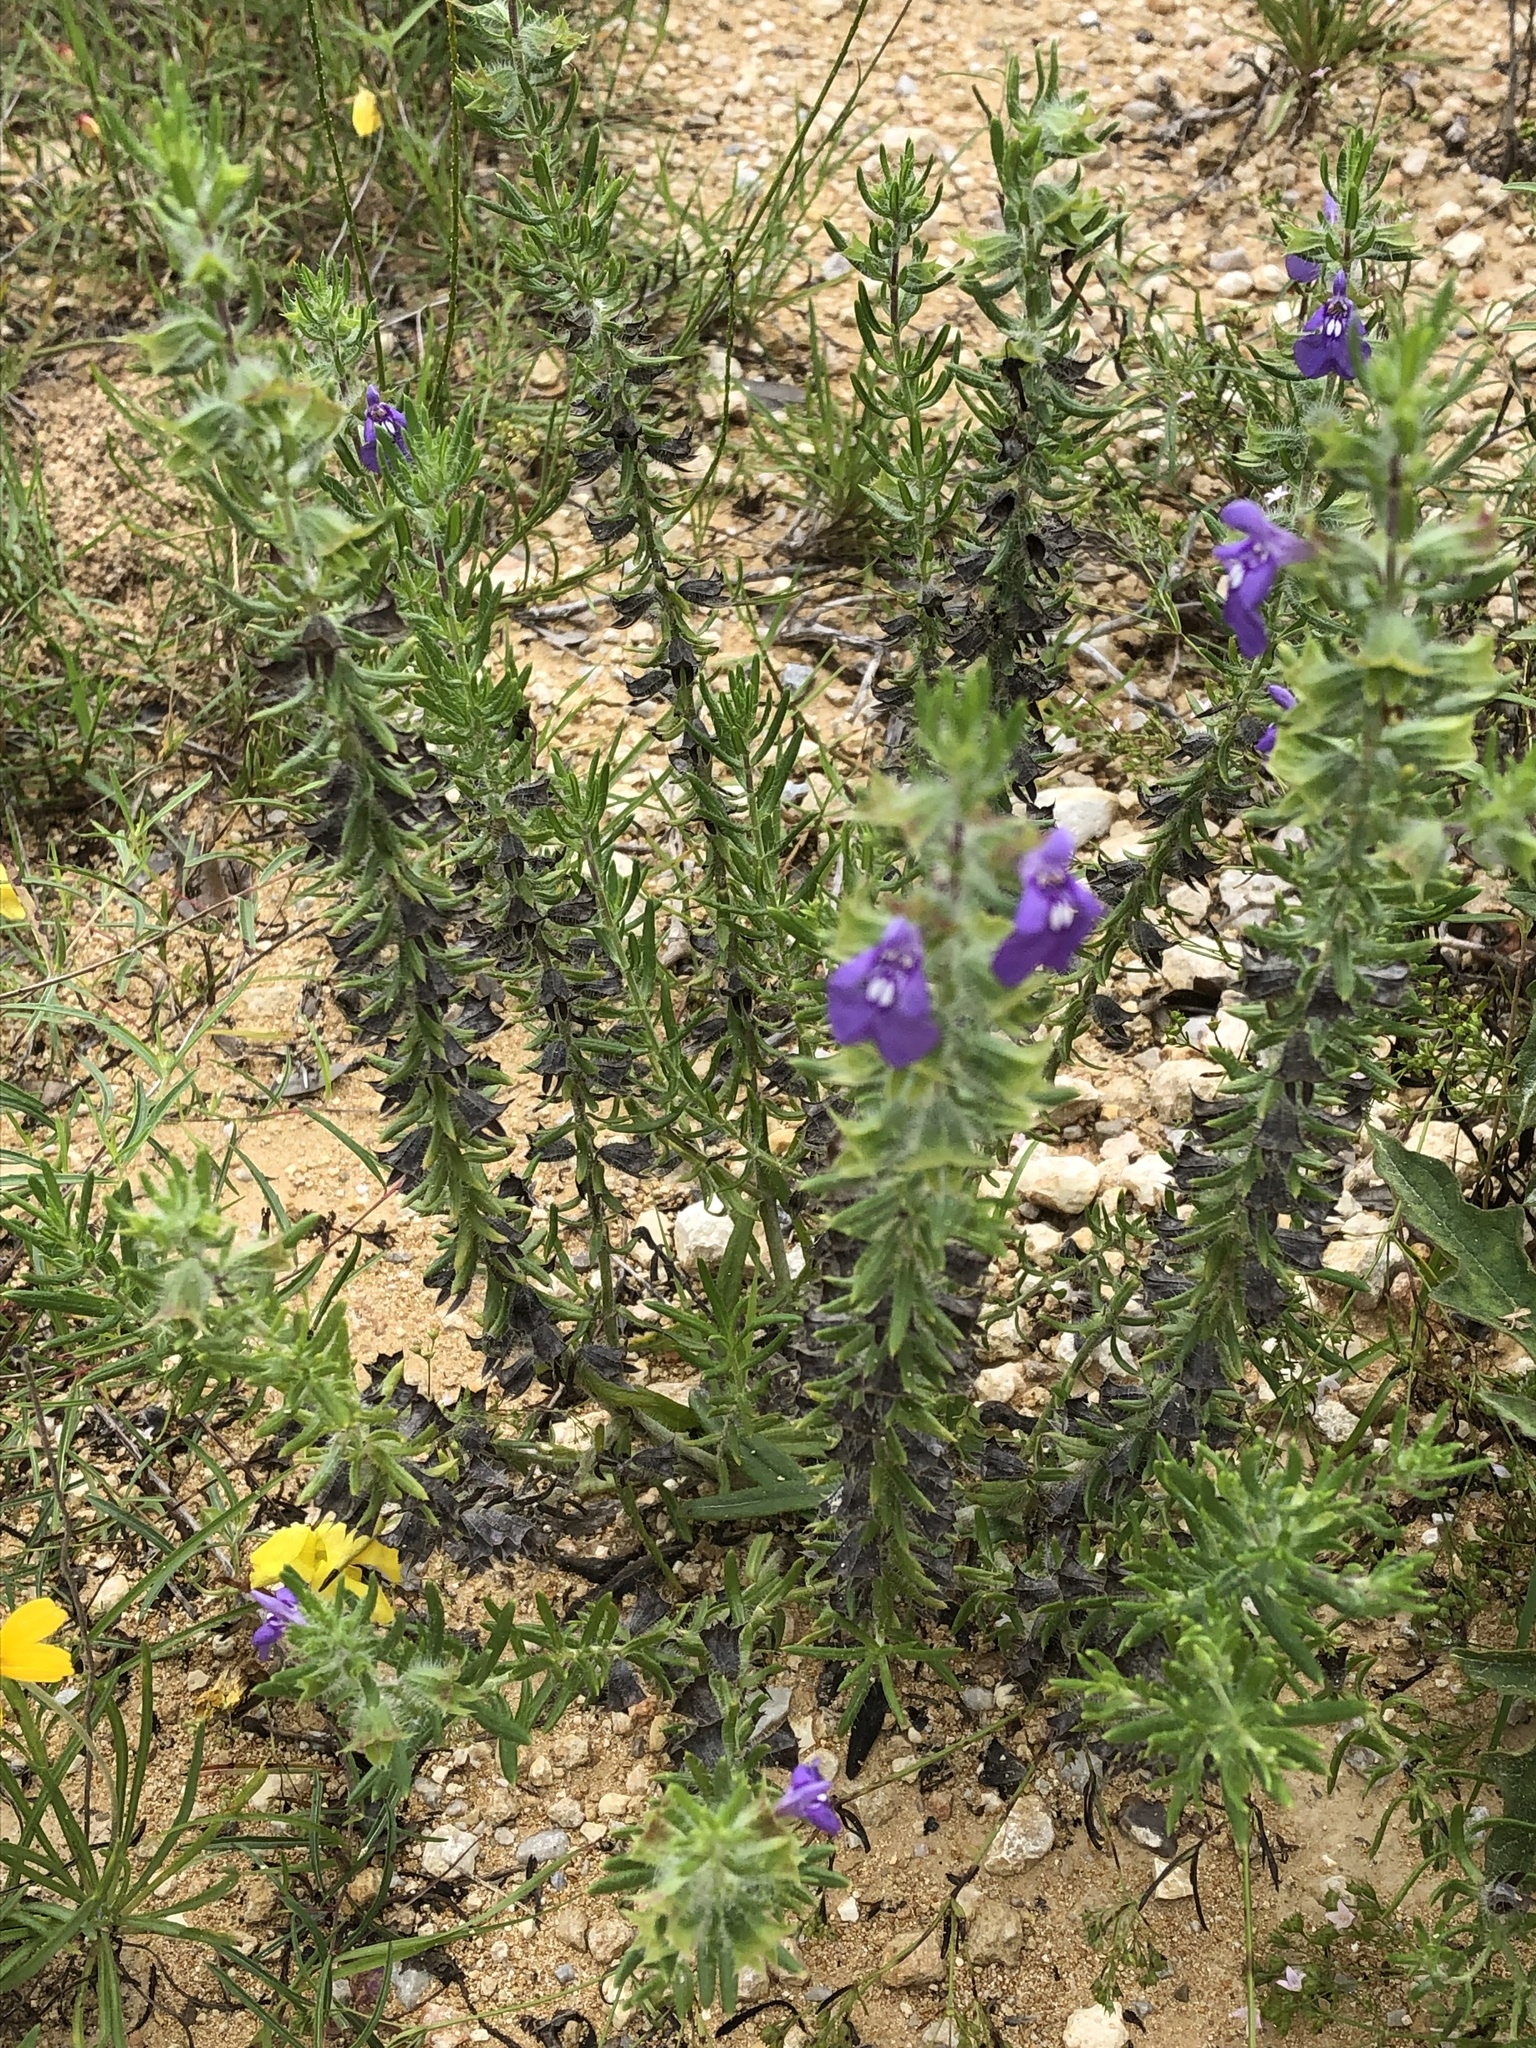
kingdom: Plantae
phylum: Tracheophyta
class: Magnoliopsida
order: Lamiales
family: Lamiaceae
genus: Salvia
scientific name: Salvia texana
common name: Texas sage
